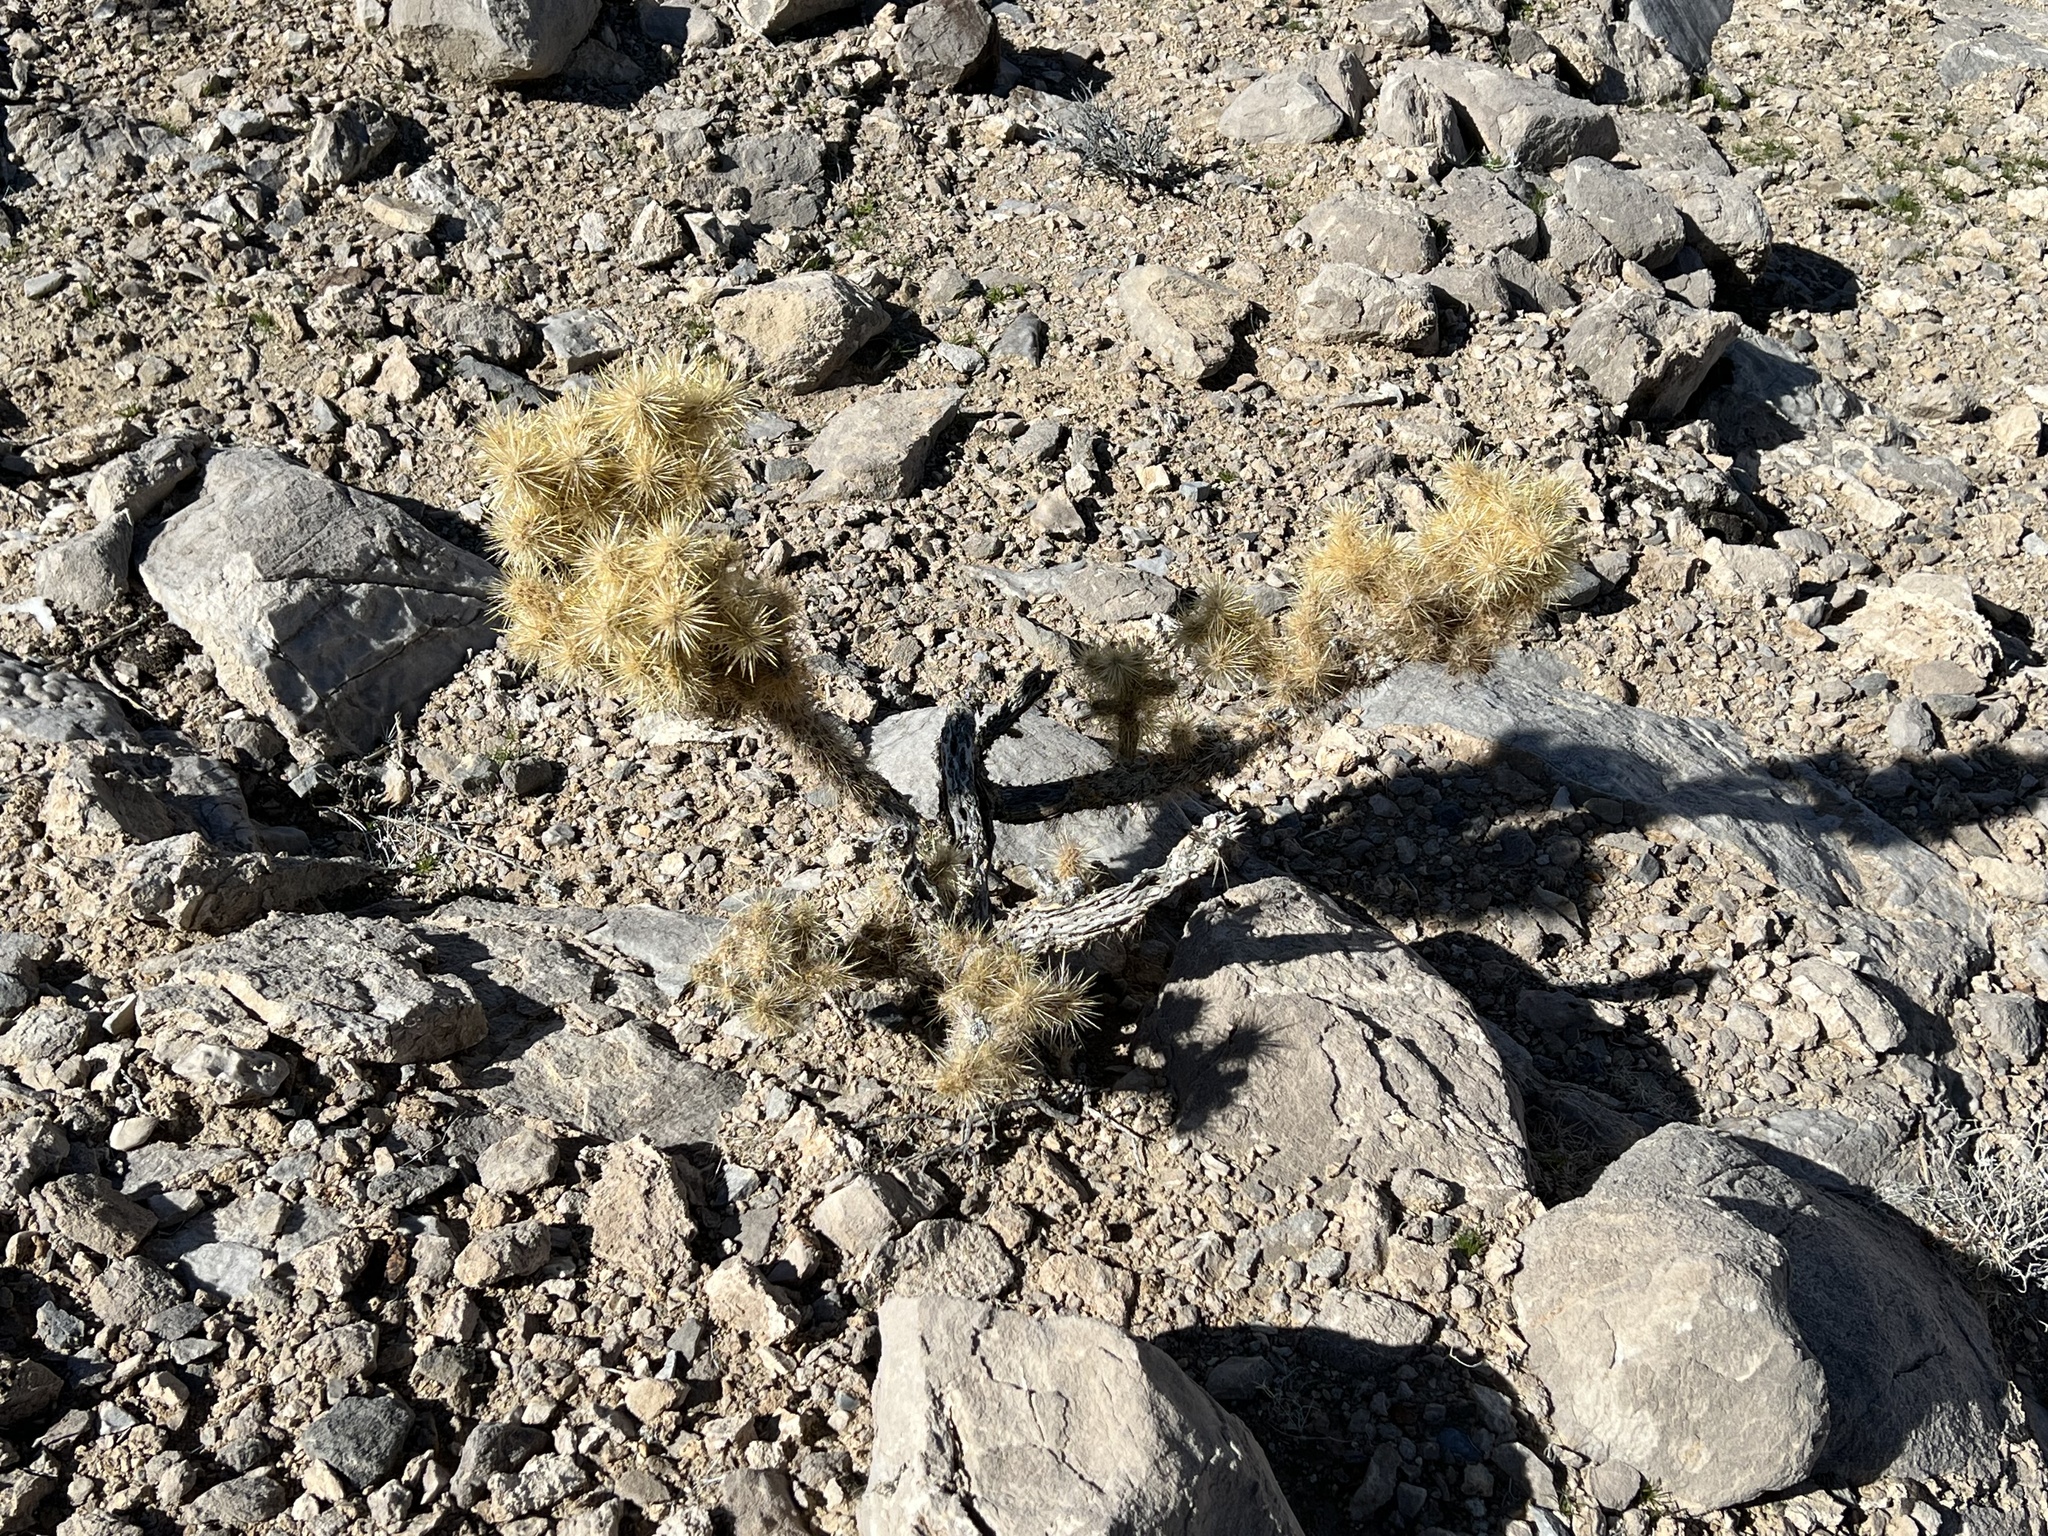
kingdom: Plantae
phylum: Tracheophyta
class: Magnoliopsida
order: Caryophyllales
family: Cactaceae
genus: Cylindropuntia
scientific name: Cylindropuntia echinocarpa
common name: Ground cholla
